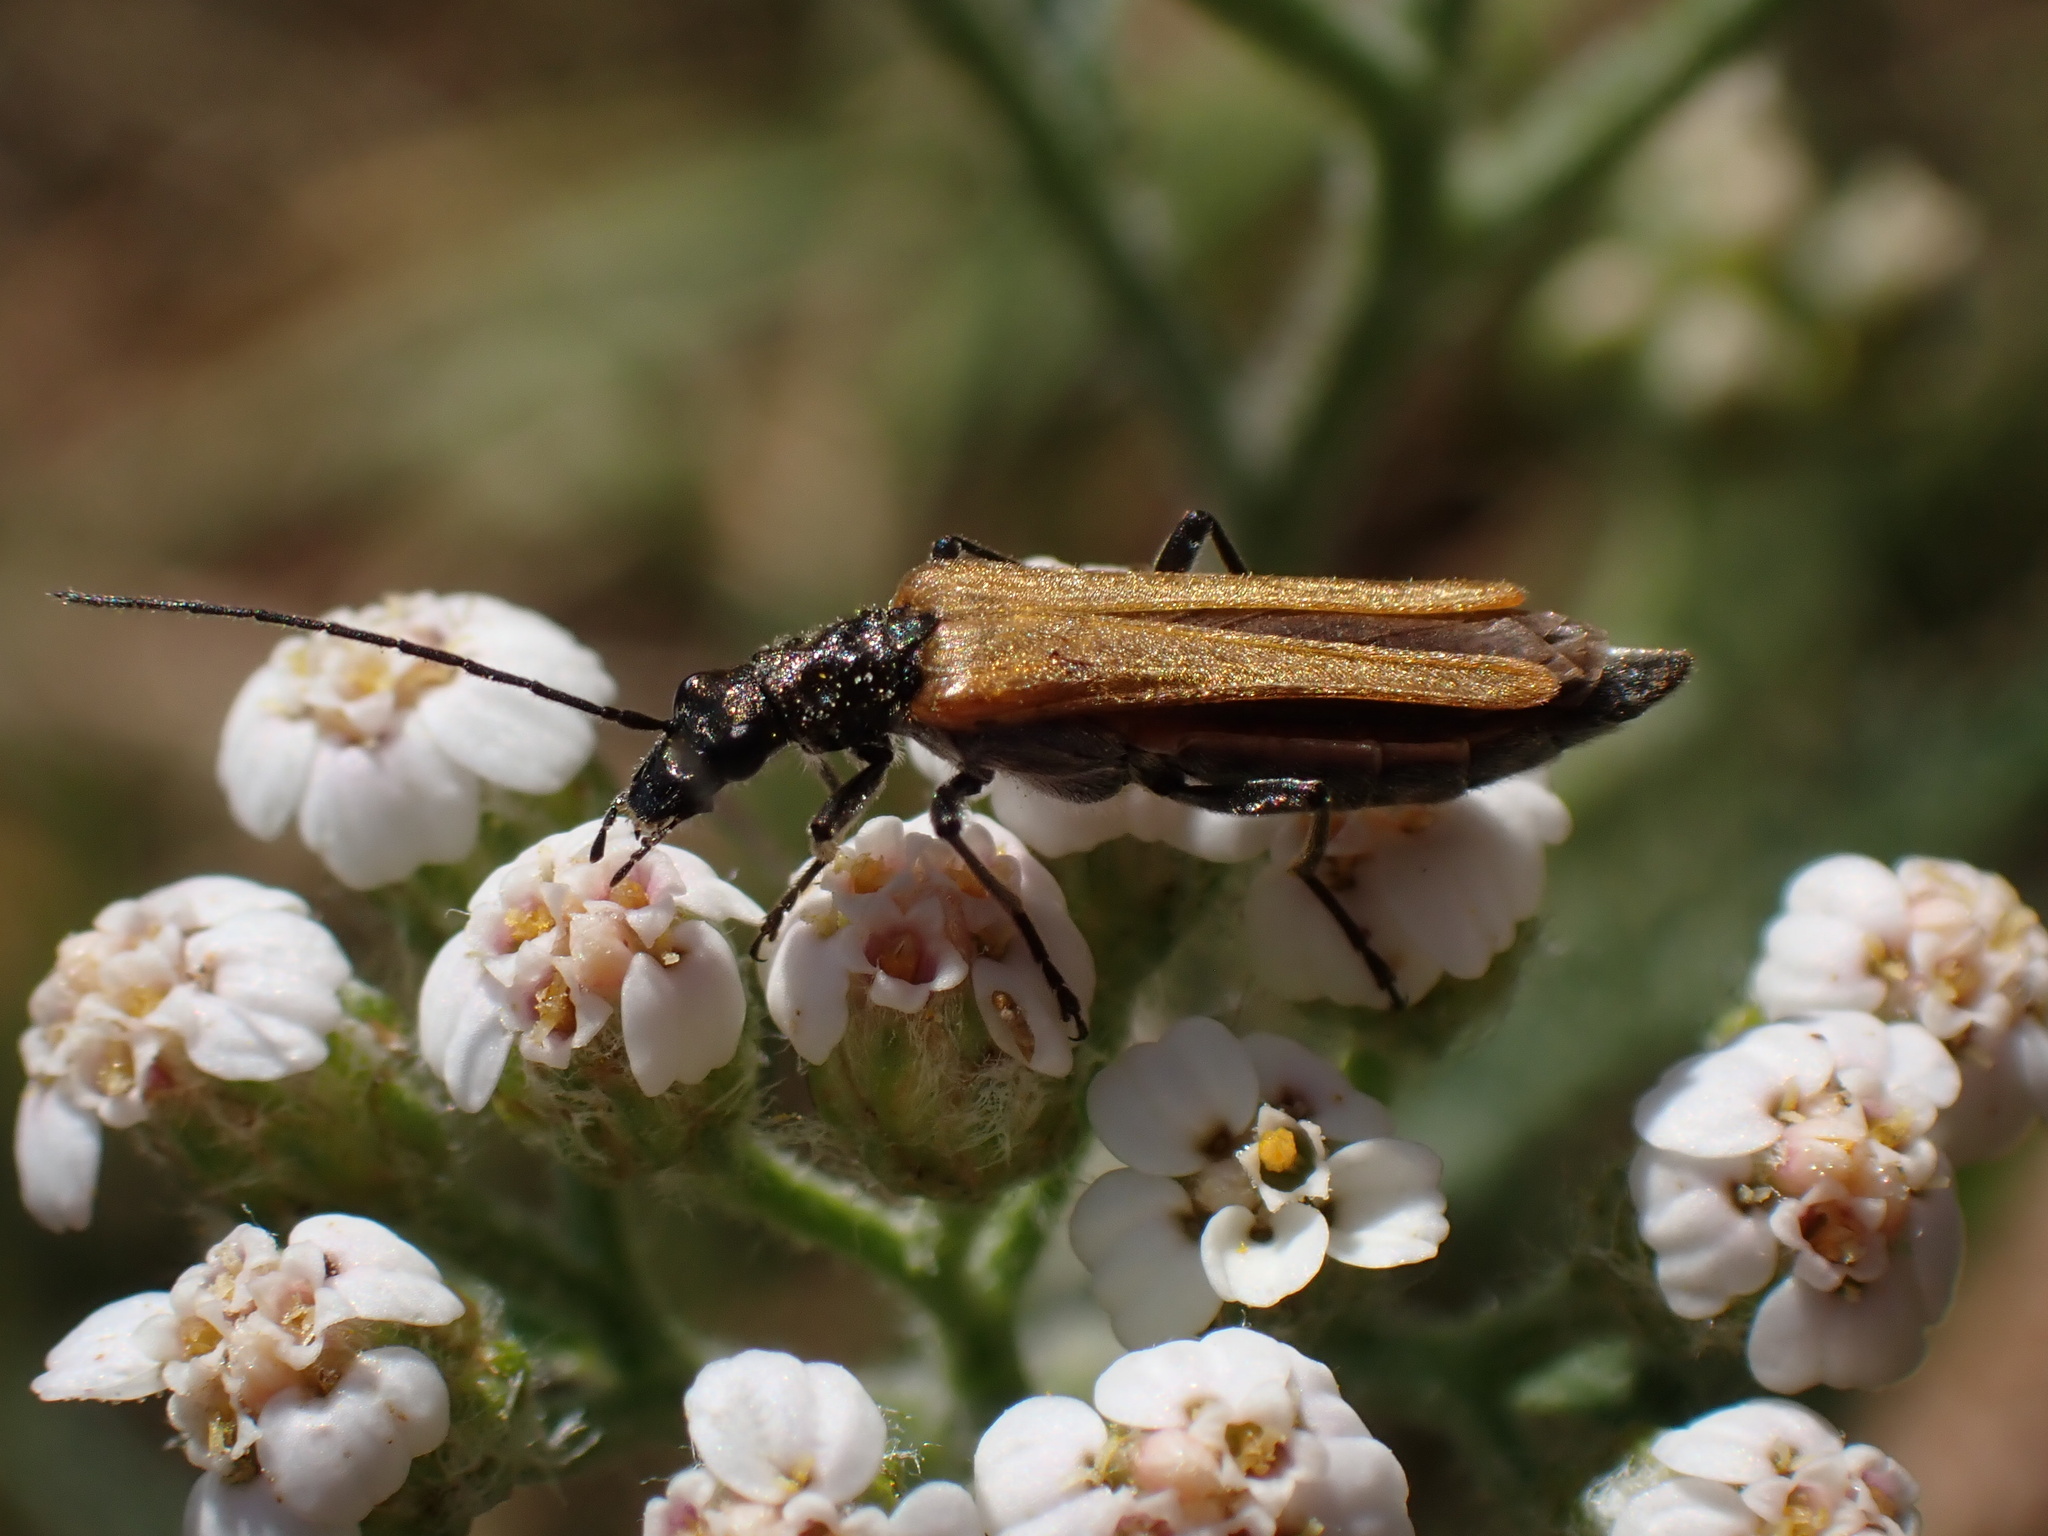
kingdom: Animalia
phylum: Arthropoda
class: Insecta
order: Coleoptera
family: Oedemeridae
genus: Oedemera
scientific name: Oedemera femorata
